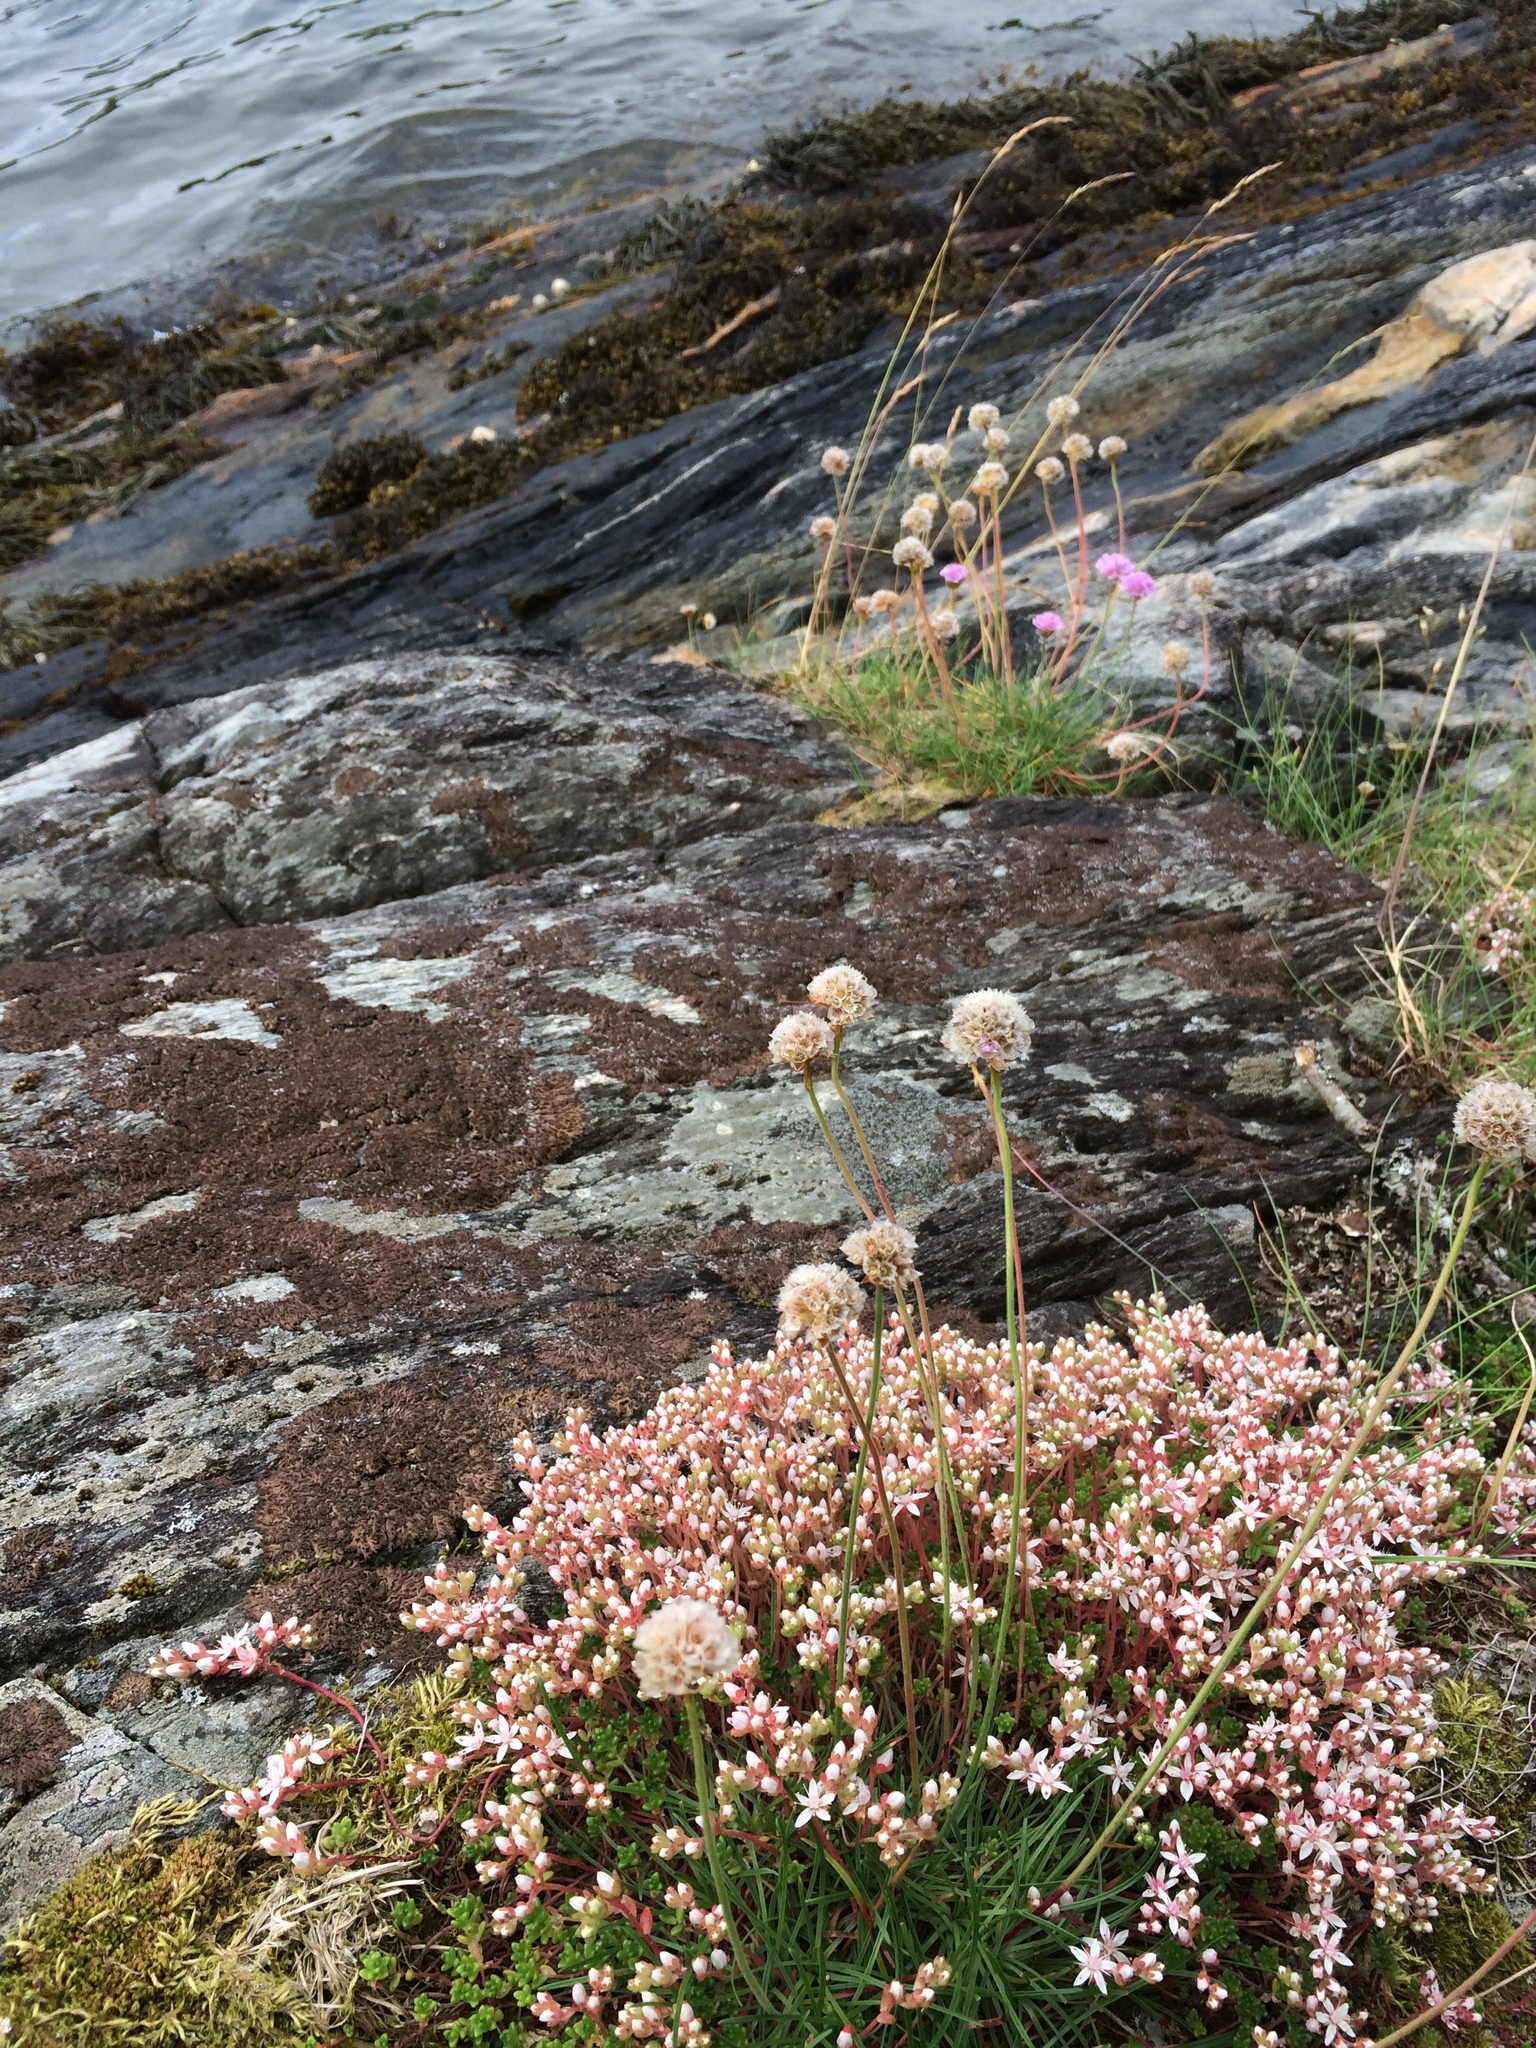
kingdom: Plantae
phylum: Tracheophyta
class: Magnoliopsida
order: Saxifragales
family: Crassulaceae
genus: Sedum
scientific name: Sedum anglicum
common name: English stonecrop
